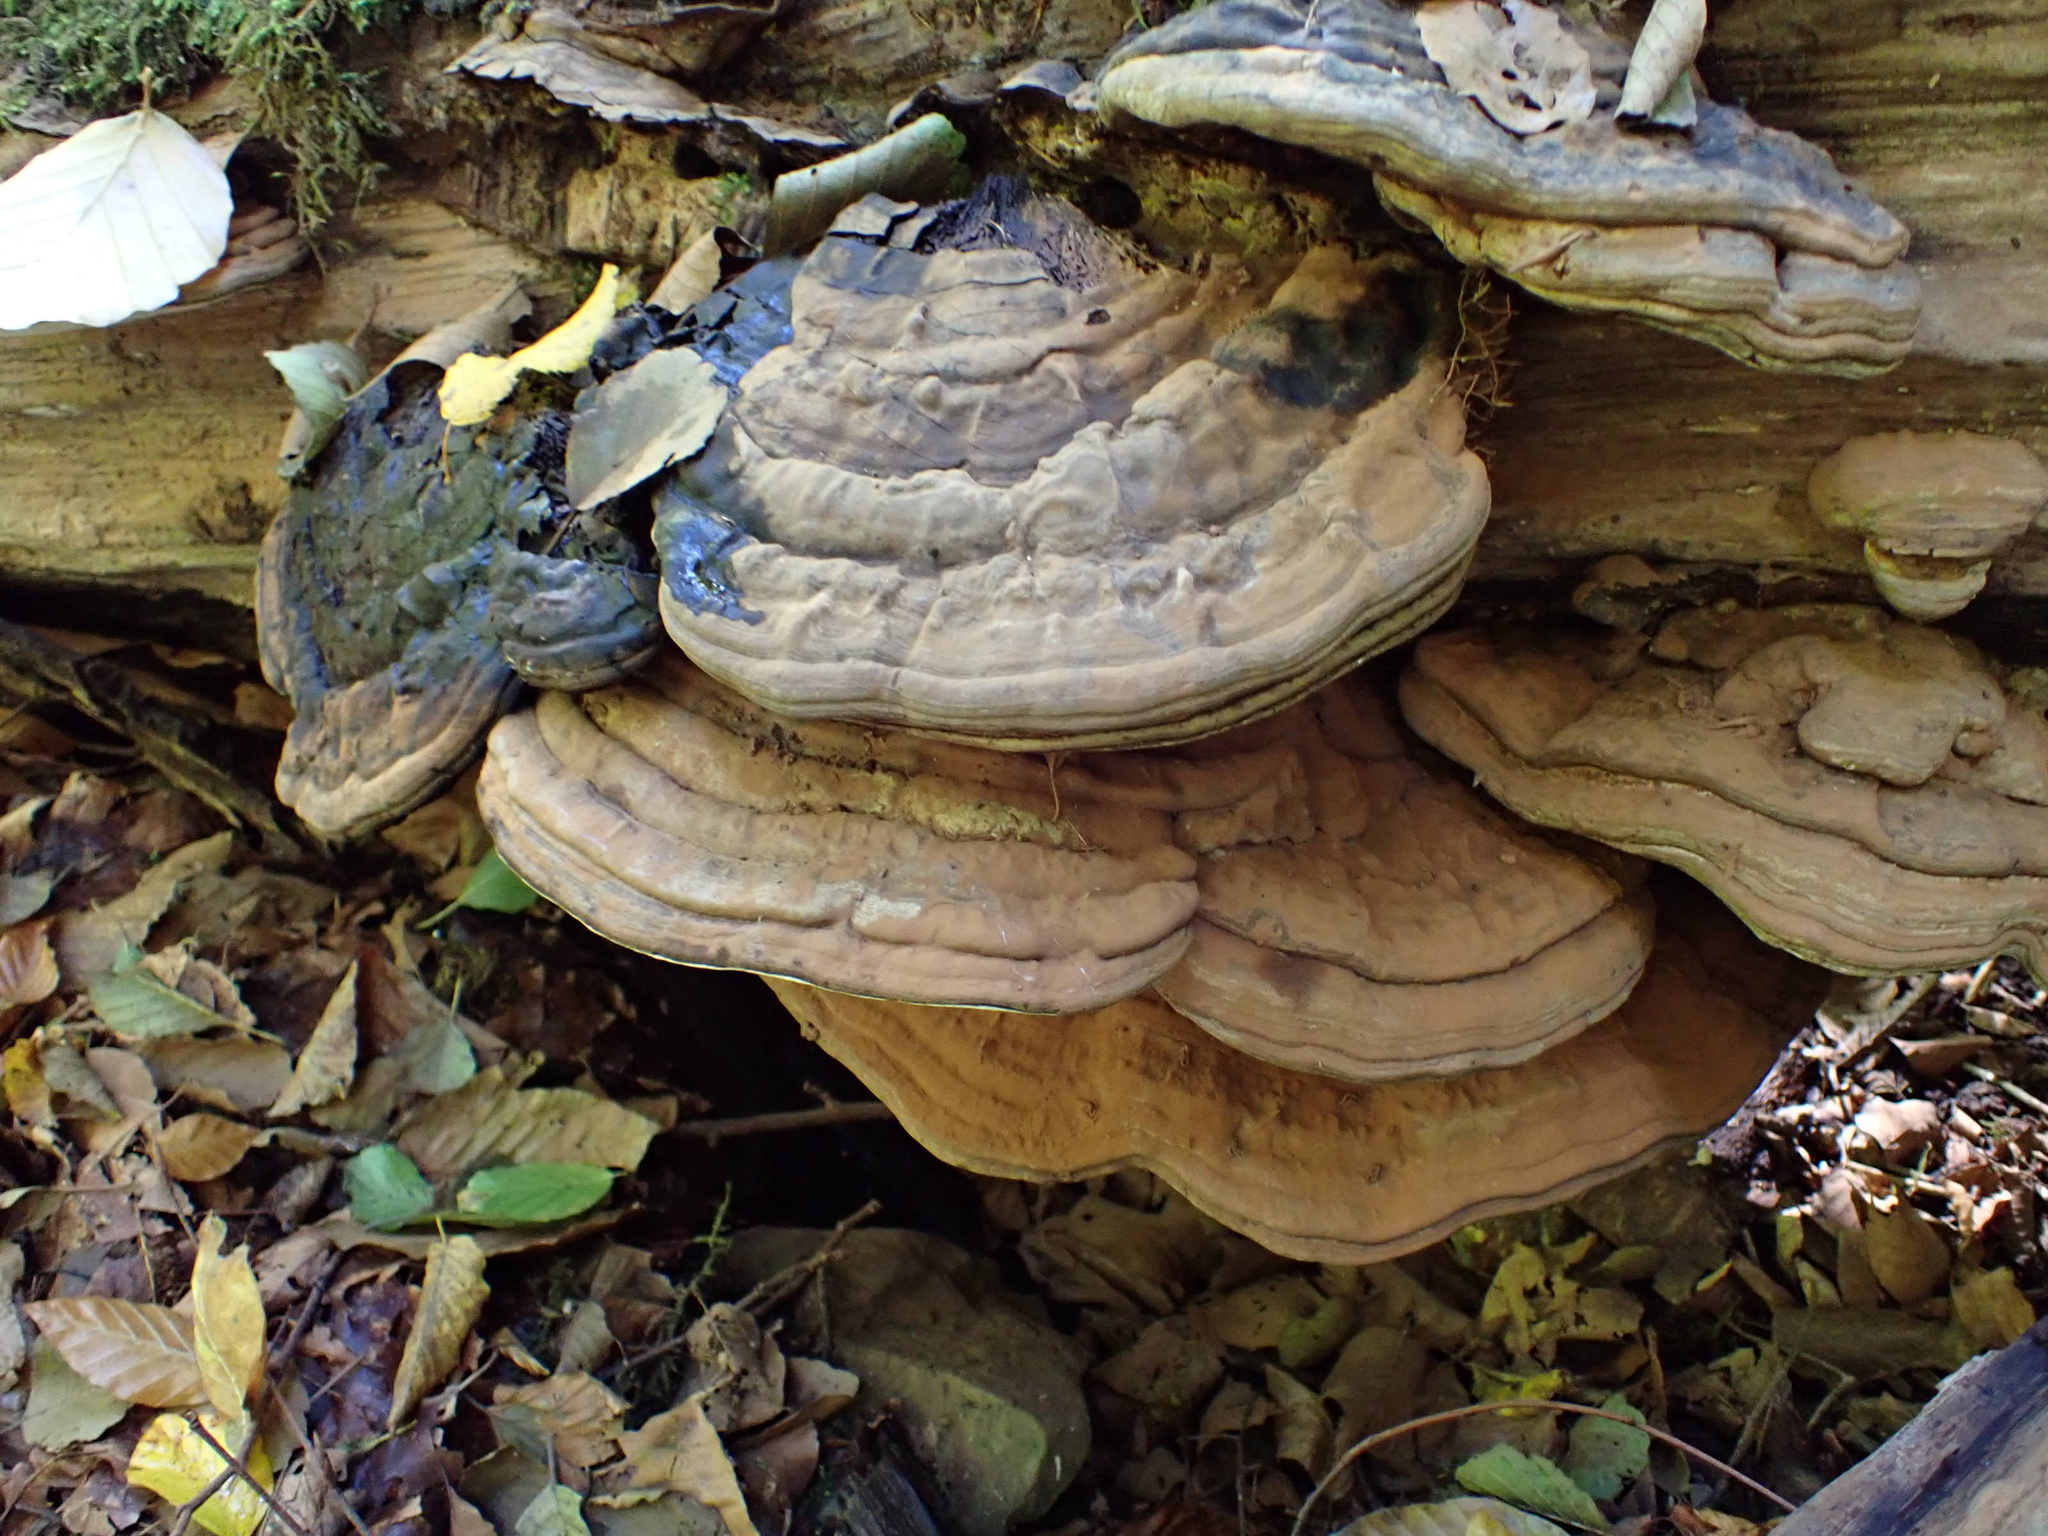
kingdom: Fungi
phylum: Basidiomycota
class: Agaricomycetes
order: Polyporales
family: Polyporaceae
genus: Ganoderma
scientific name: Ganoderma applanatum
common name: Artist's bracket
